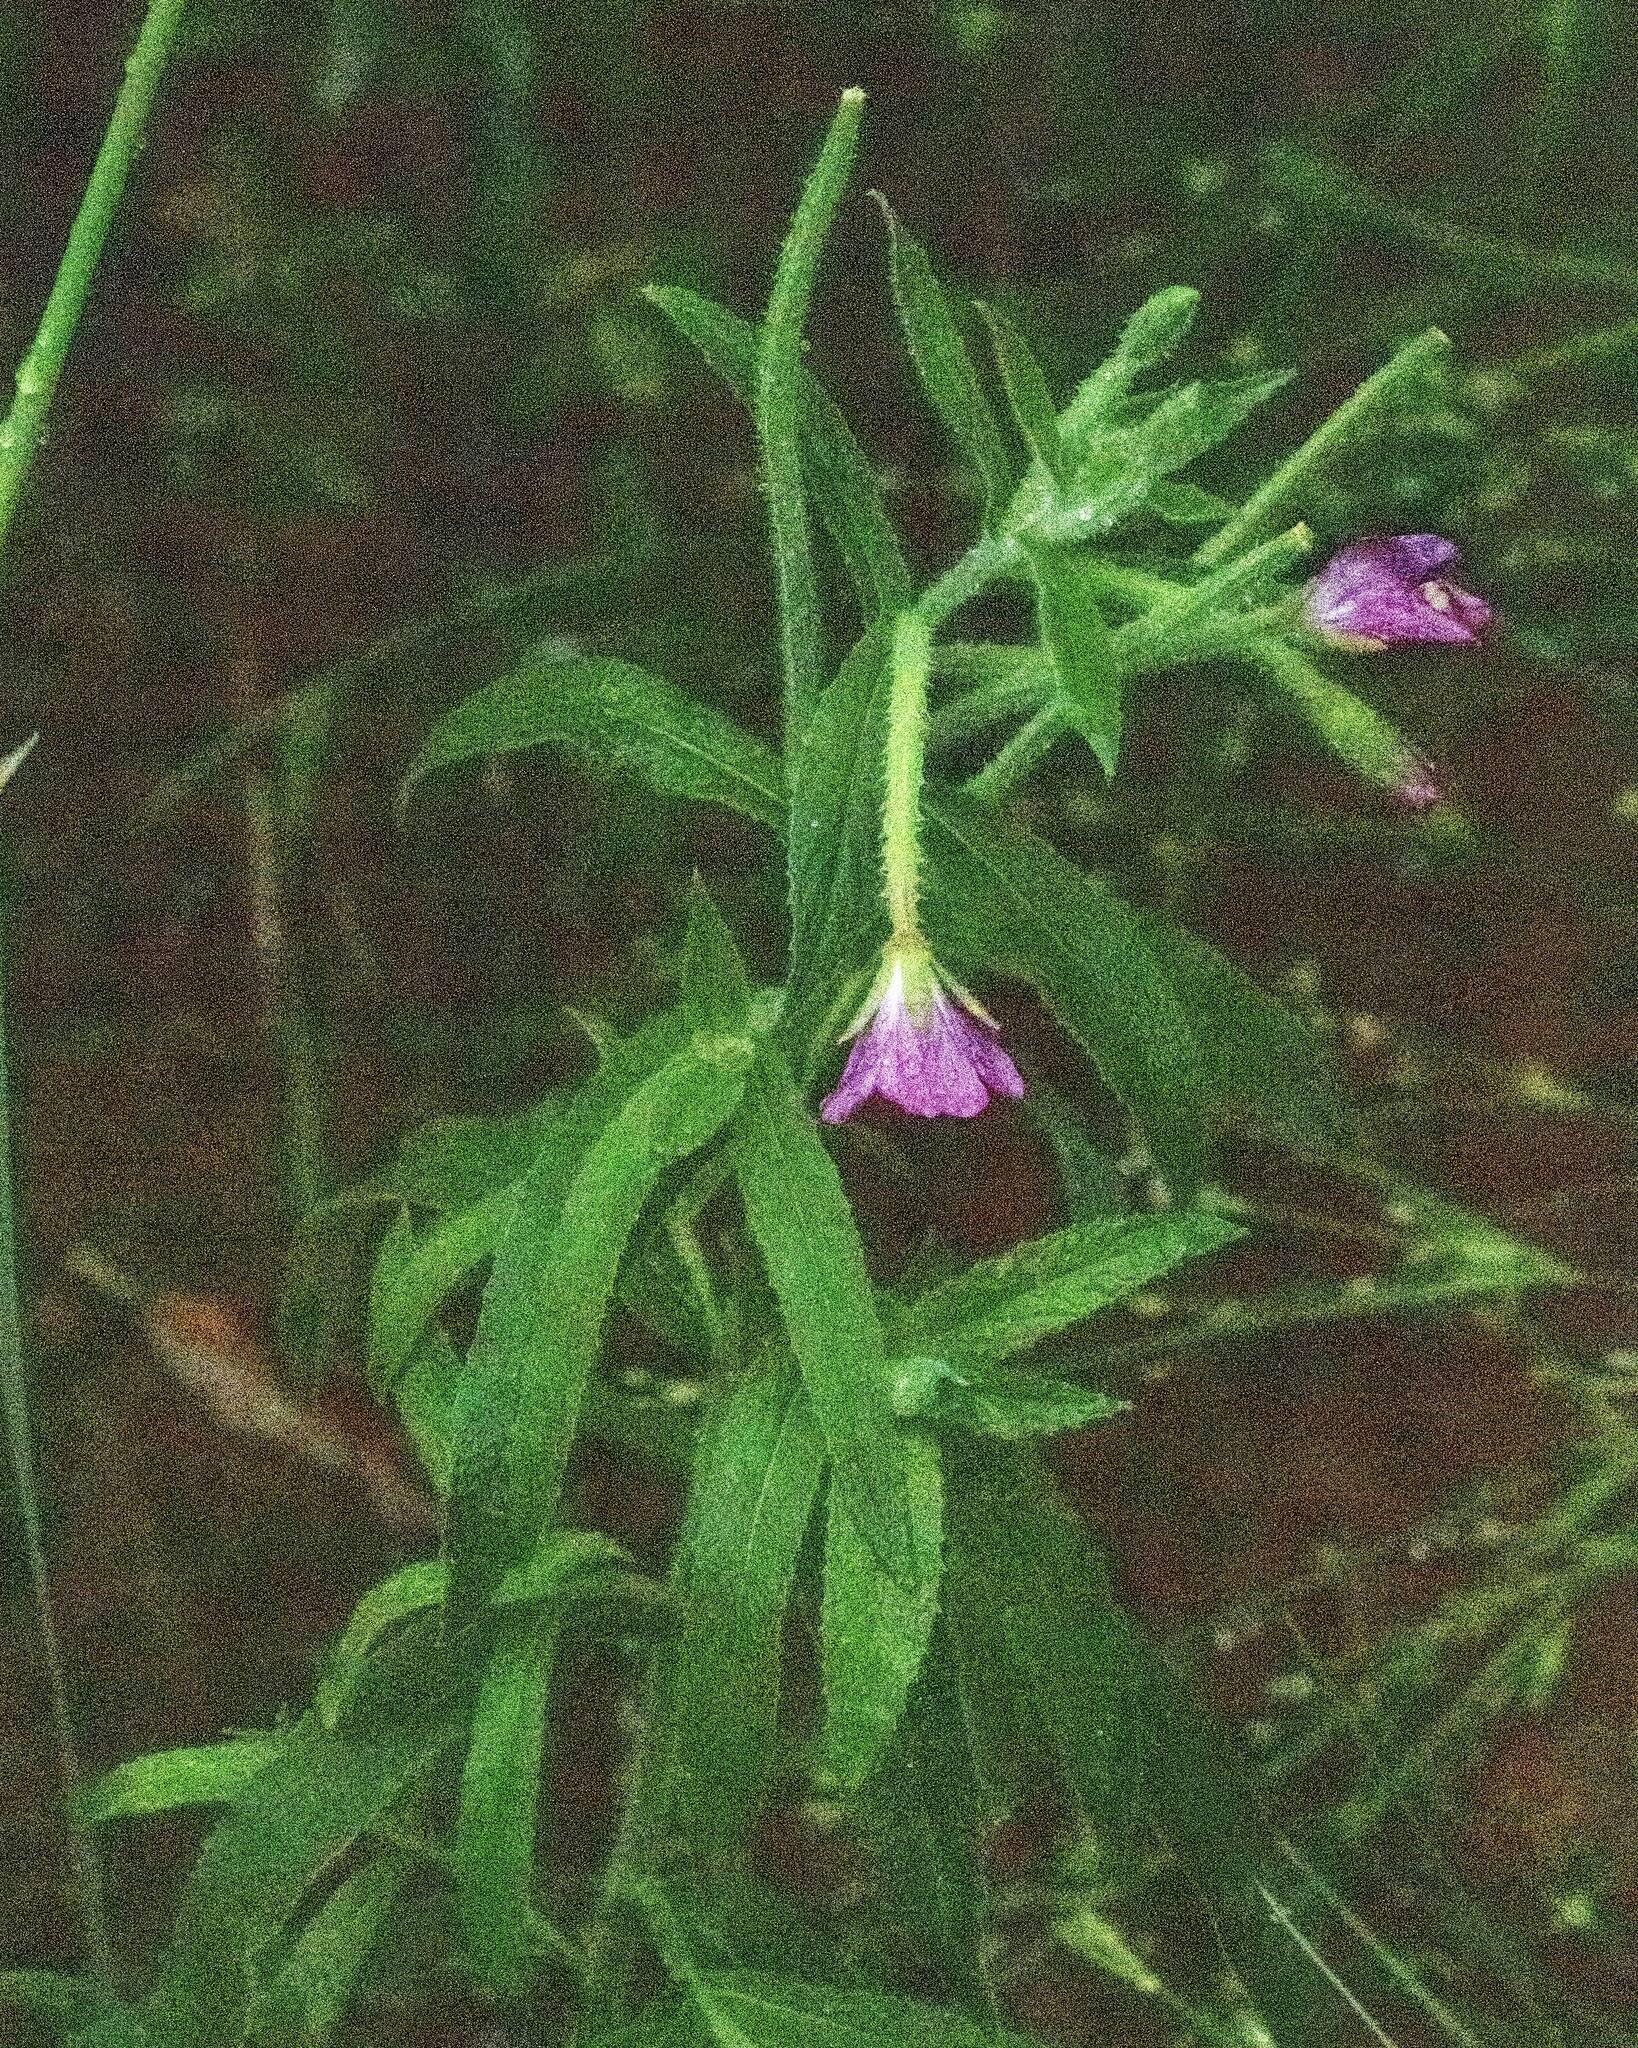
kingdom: Plantae
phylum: Tracheophyta
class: Magnoliopsida
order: Myrtales
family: Onagraceae
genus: Epilobium
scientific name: Epilobium hirsutum
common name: Great willowherb
